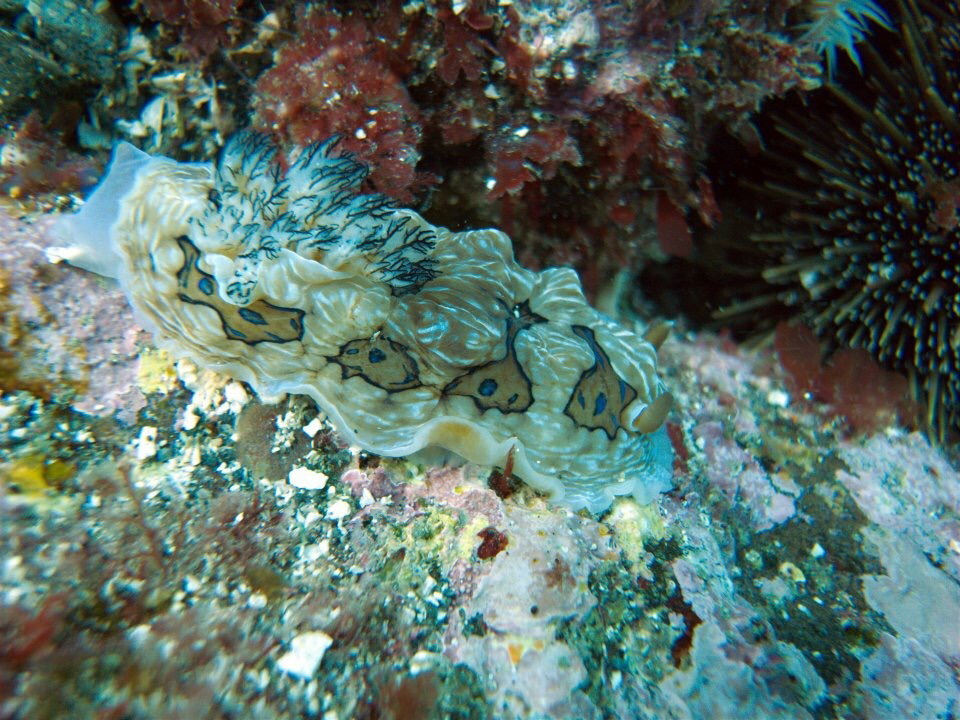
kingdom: Animalia
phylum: Mollusca
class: Gastropoda
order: Nudibranchia
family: Dendrodorididae
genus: Dendrodoris
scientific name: Dendrodoris krusensternii
